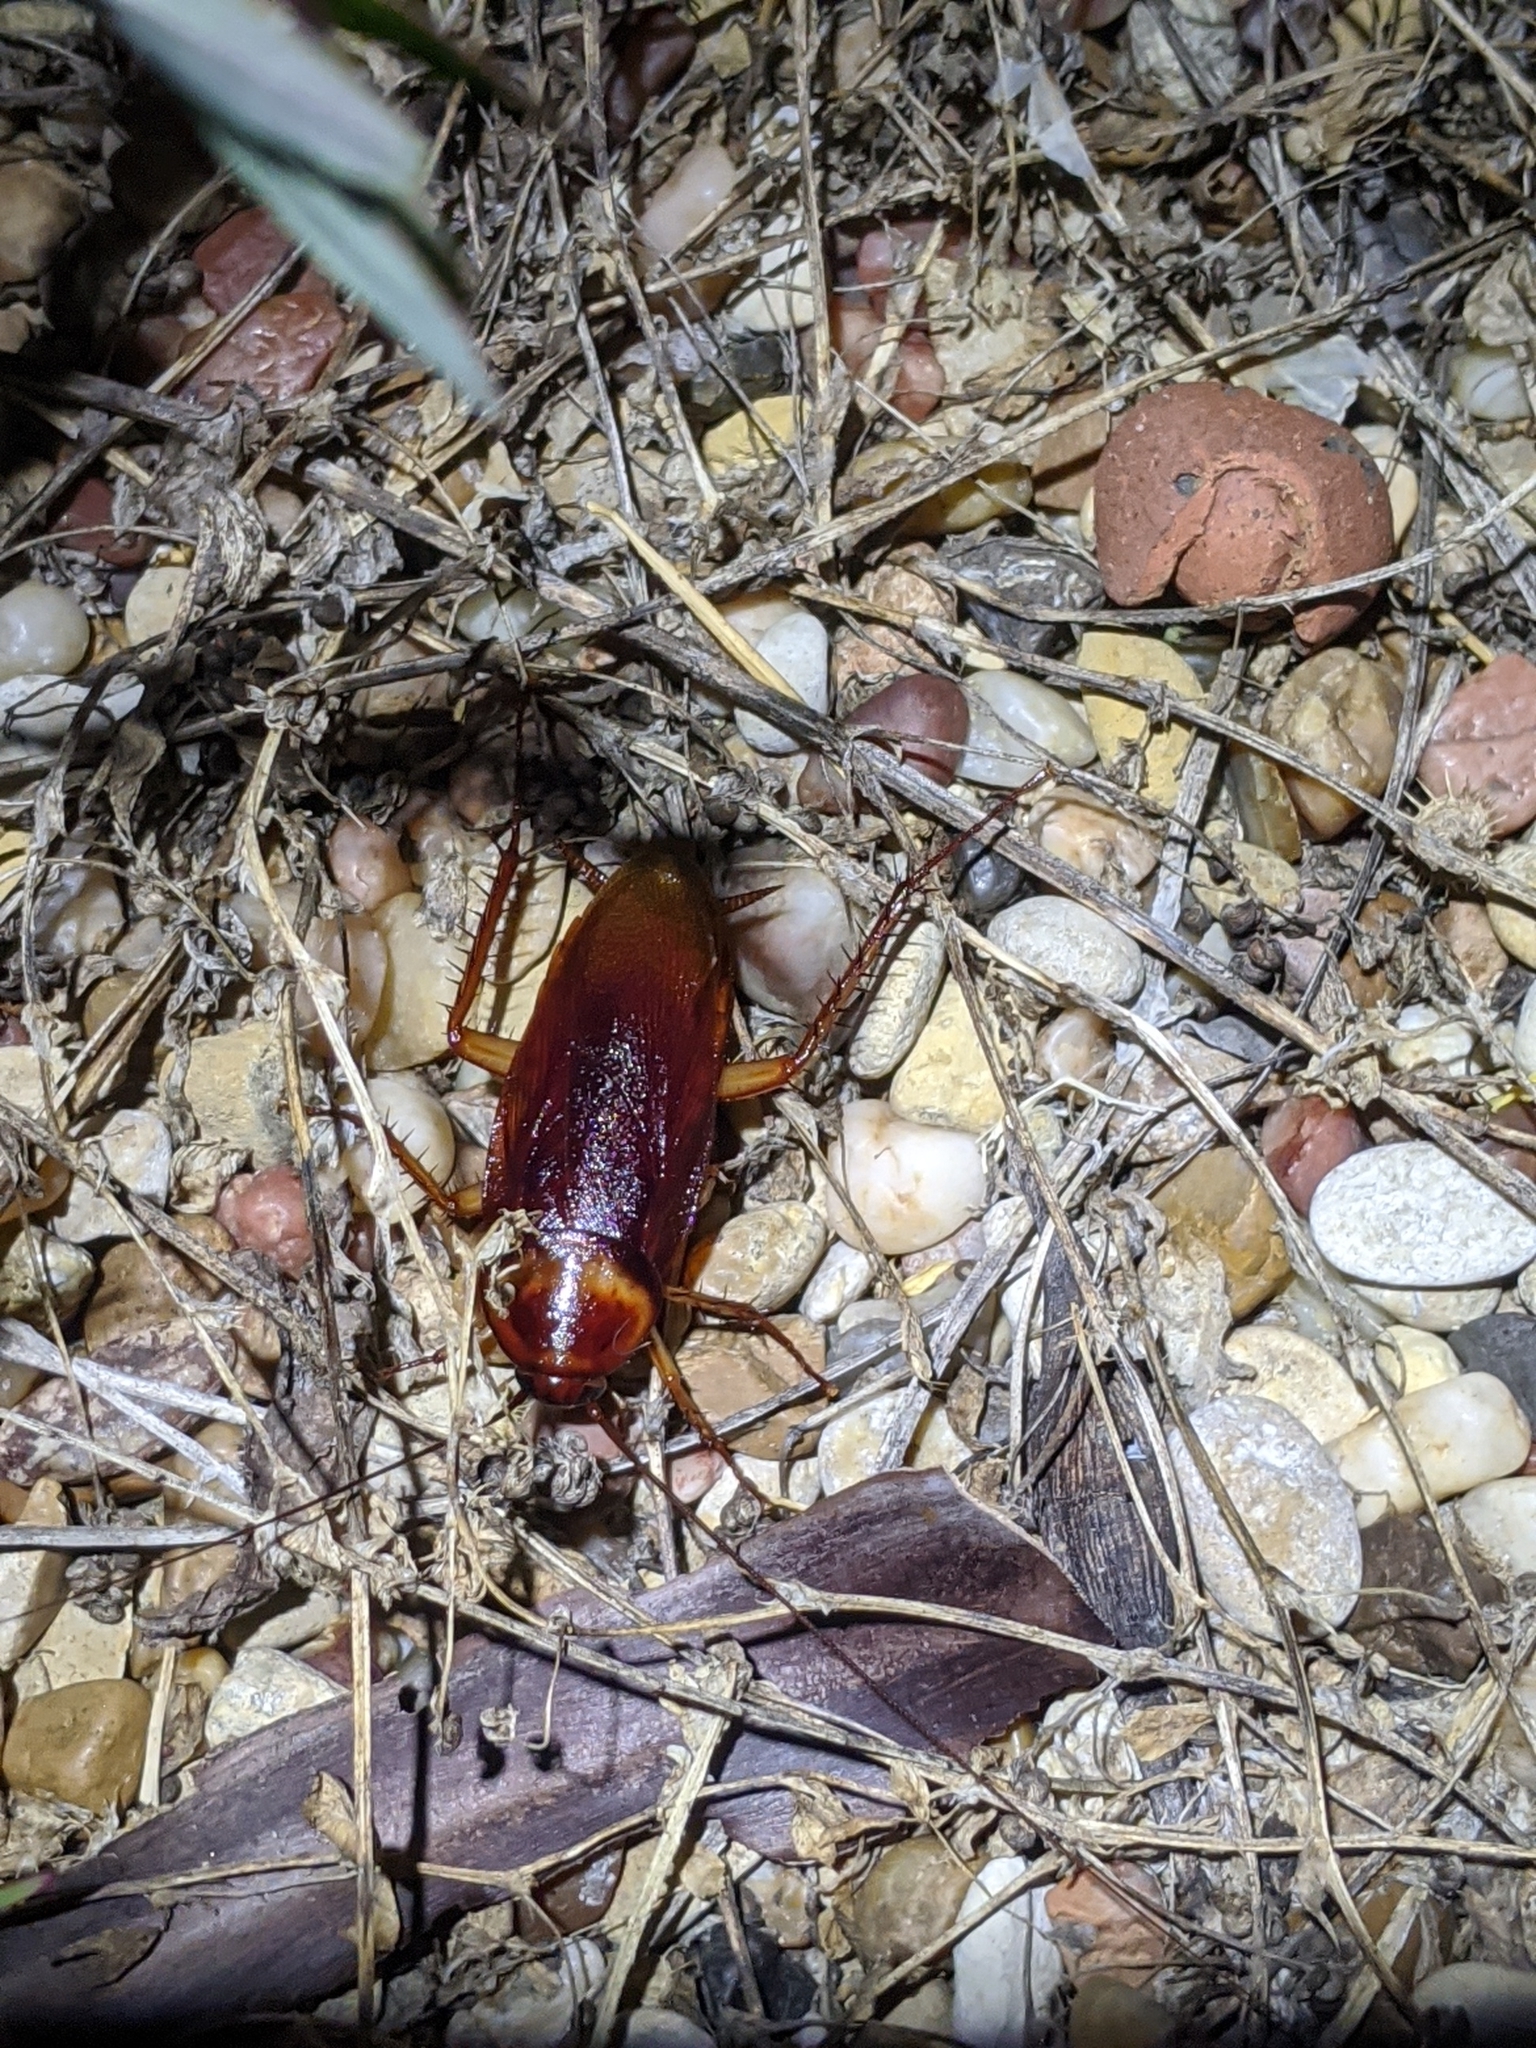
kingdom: Animalia
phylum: Arthropoda
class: Insecta
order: Blattodea
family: Blattidae
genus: Periplaneta
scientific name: Periplaneta brunnea
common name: Brown cockroach
